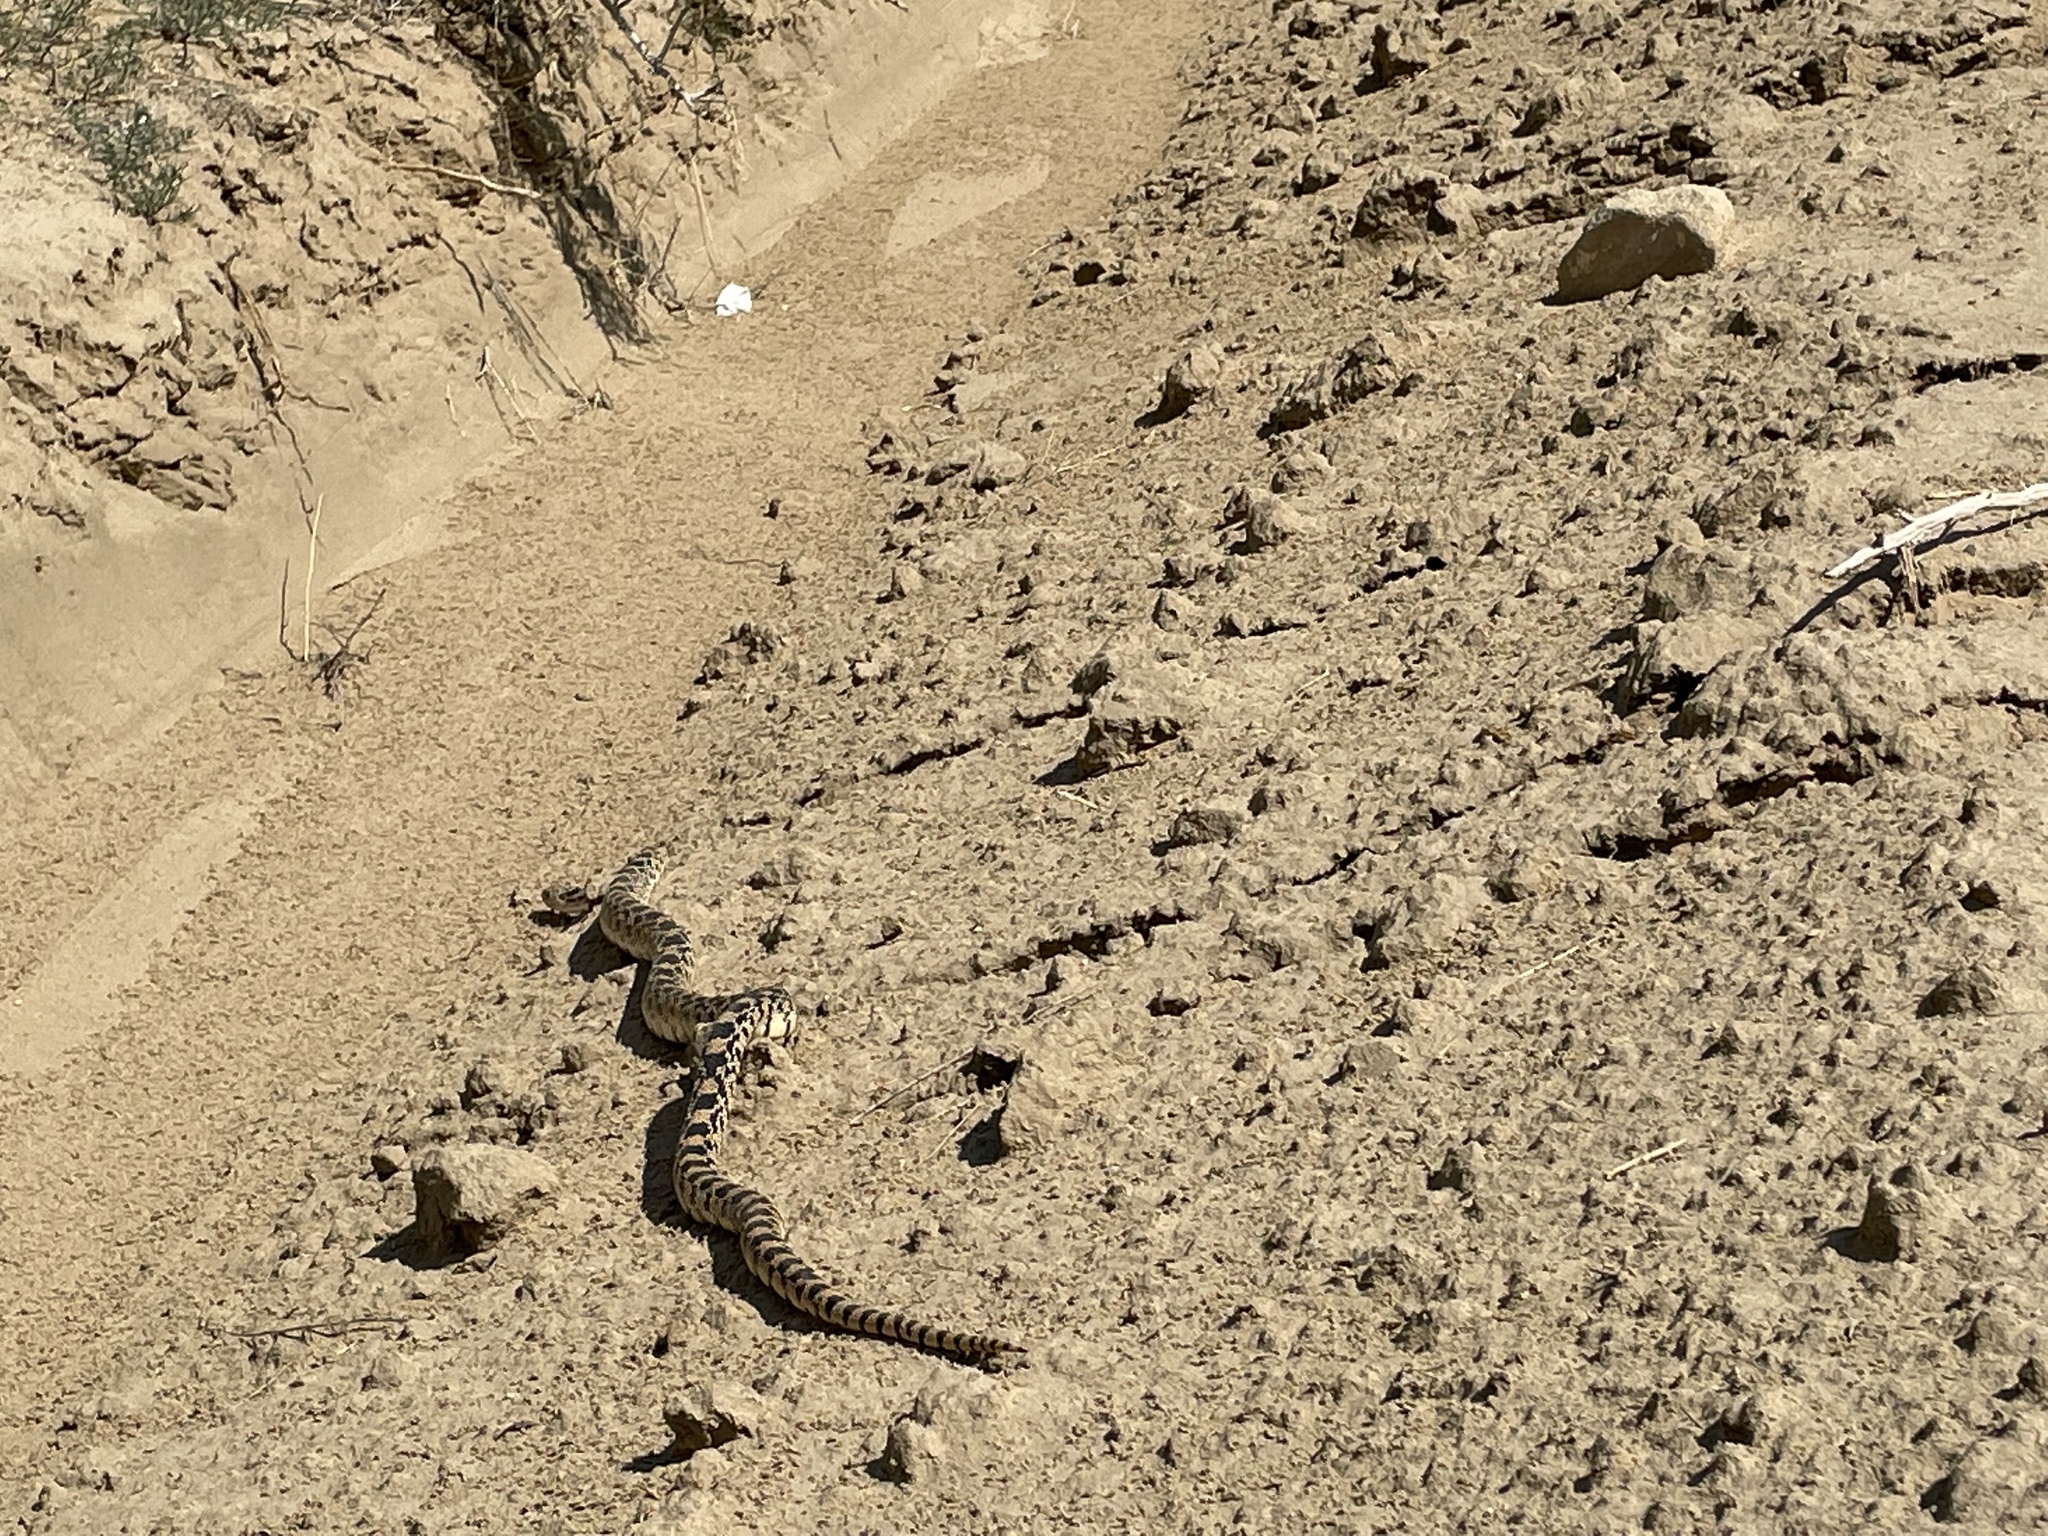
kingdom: Animalia
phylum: Chordata
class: Squamata
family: Colubridae
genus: Pituophis
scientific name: Pituophis catenifer
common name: Gopher snake
